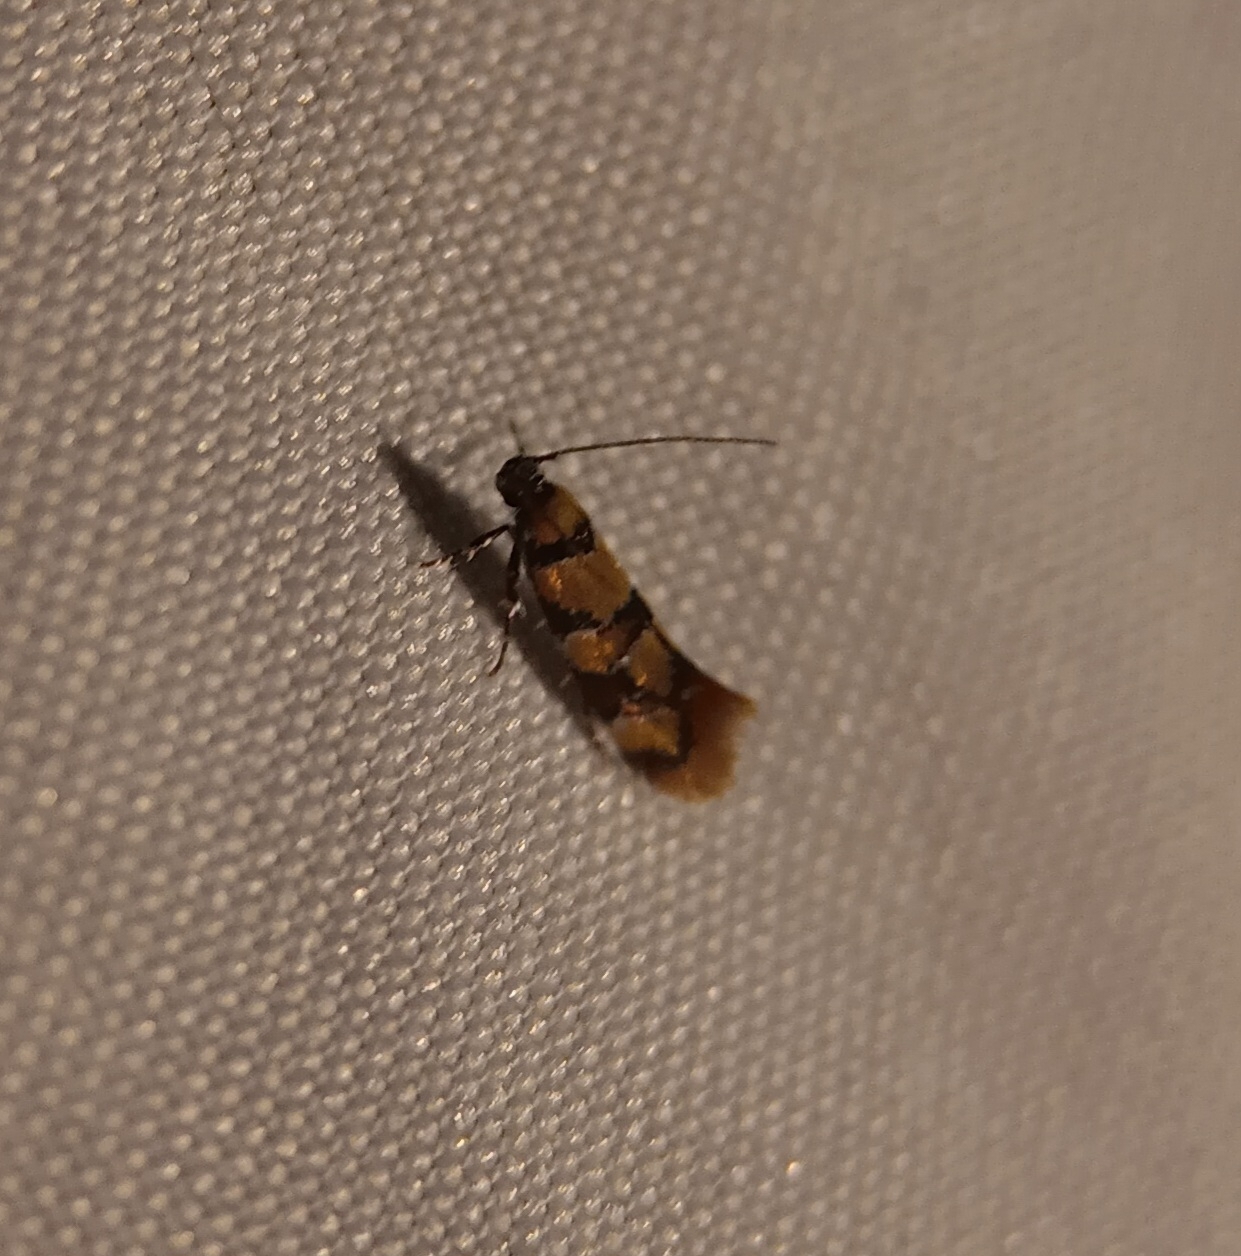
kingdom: Animalia
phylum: Arthropoda
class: Insecta
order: Lepidoptera
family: Oecophoridae
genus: Decantha
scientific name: Decantha borkhausenii
